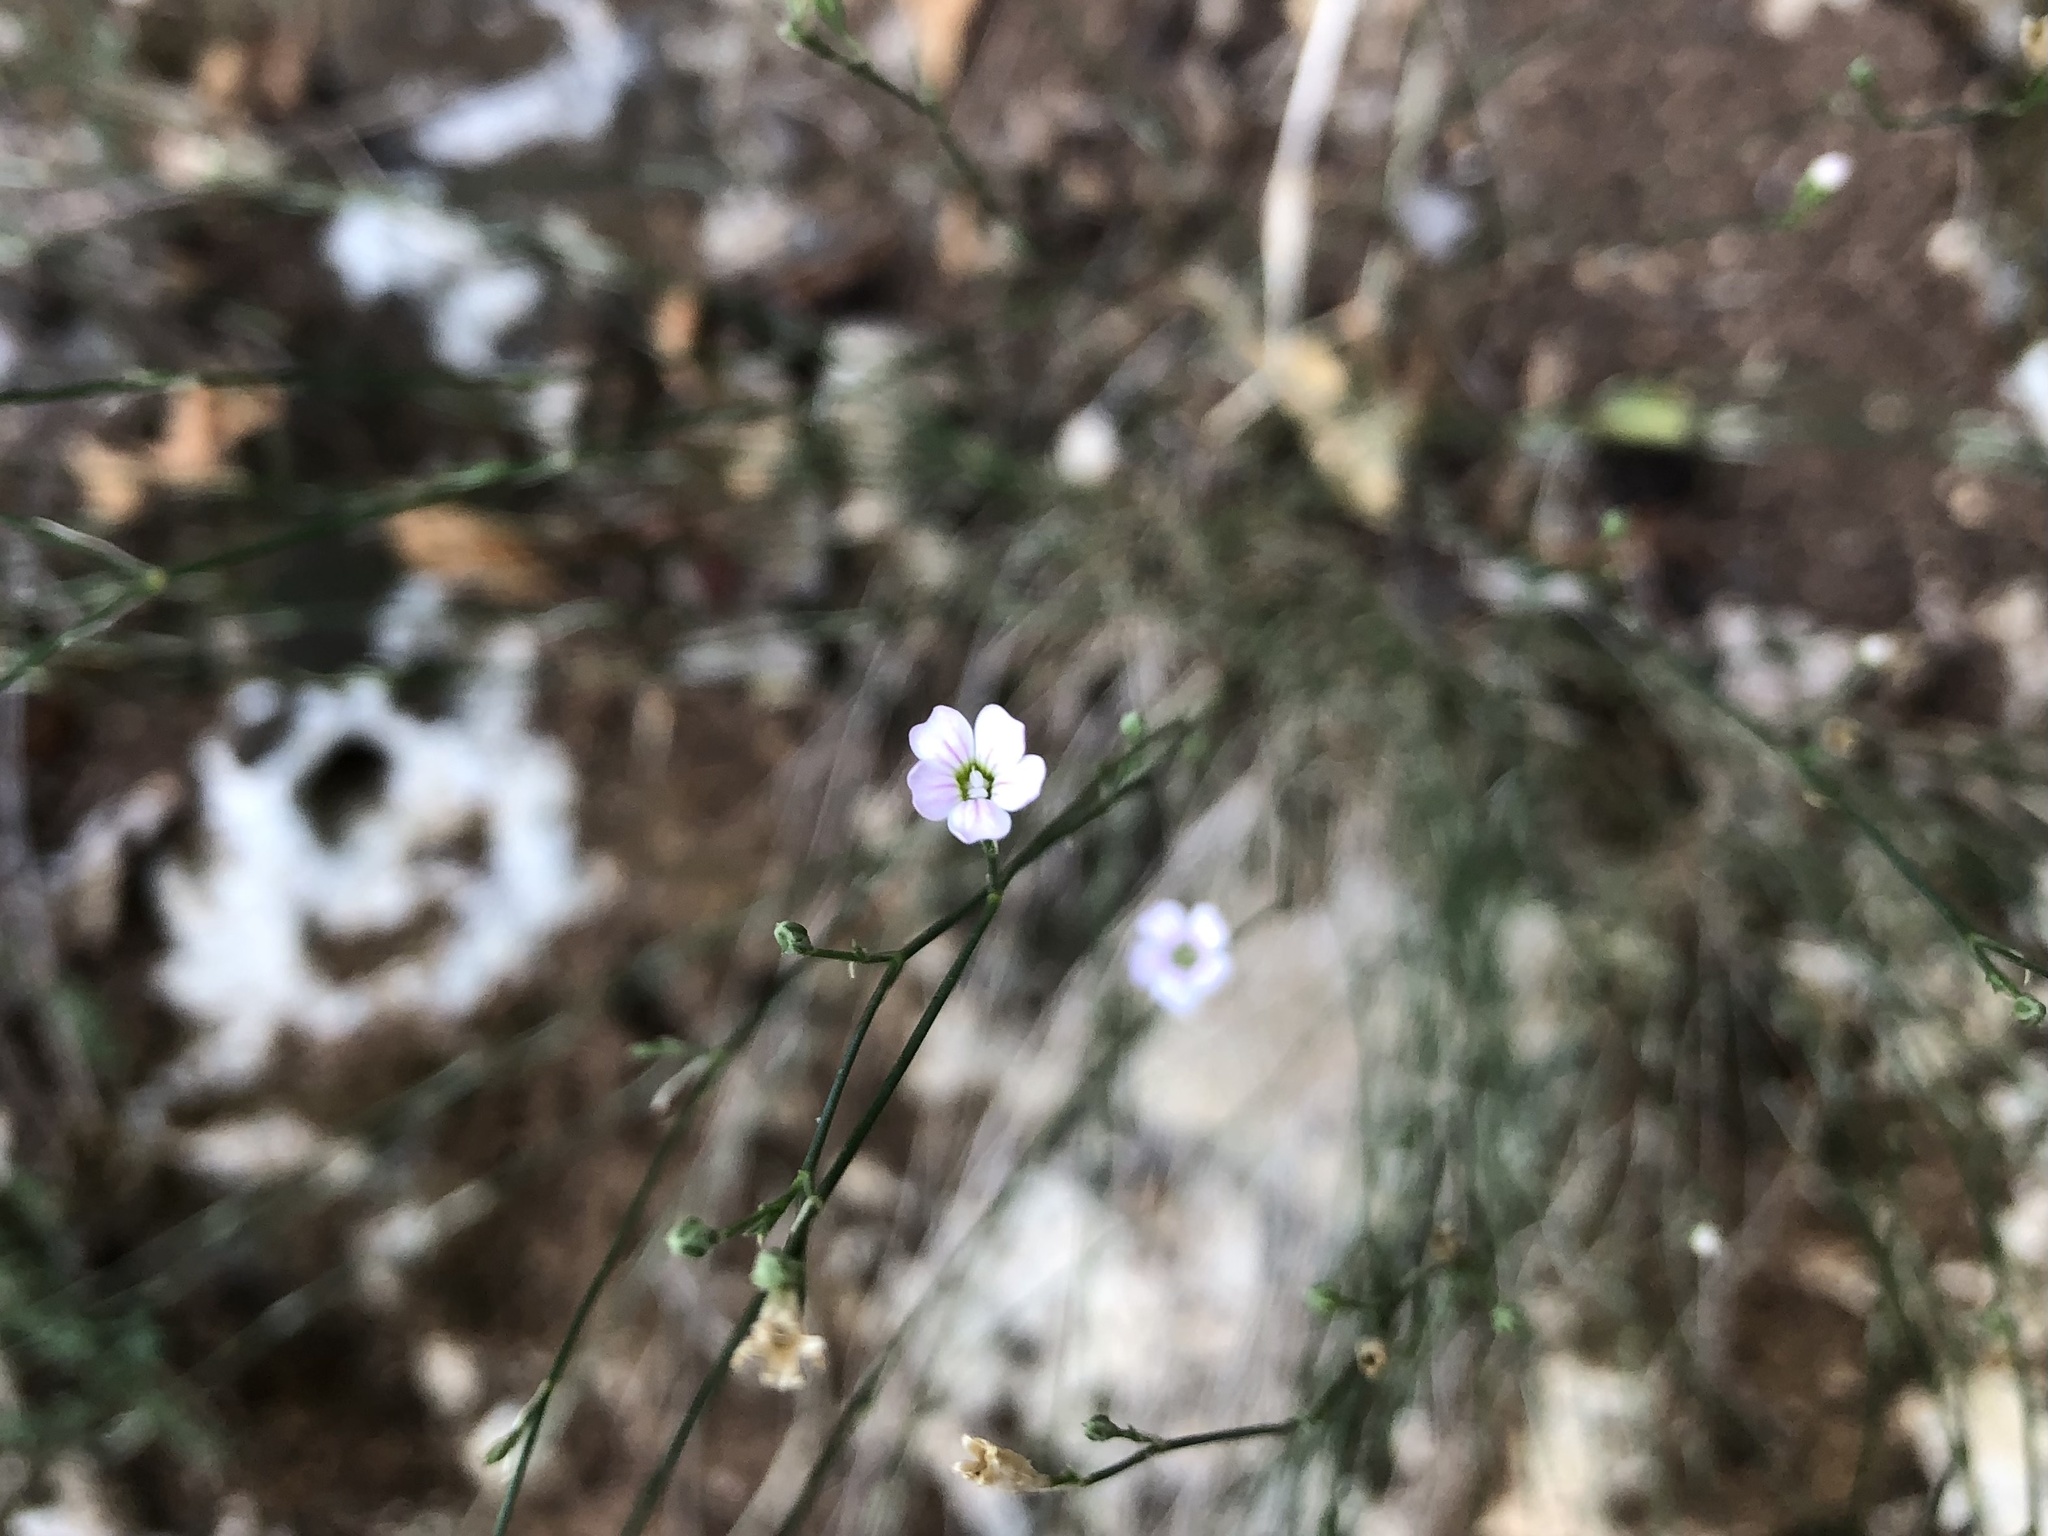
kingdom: Plantae
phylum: Tracheophyta
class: Magnoliopsida
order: Caryophyllales
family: Caryophyllaceae
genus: Petrorhagia
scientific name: Petrorhagia saxifraga
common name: Tunicflower
